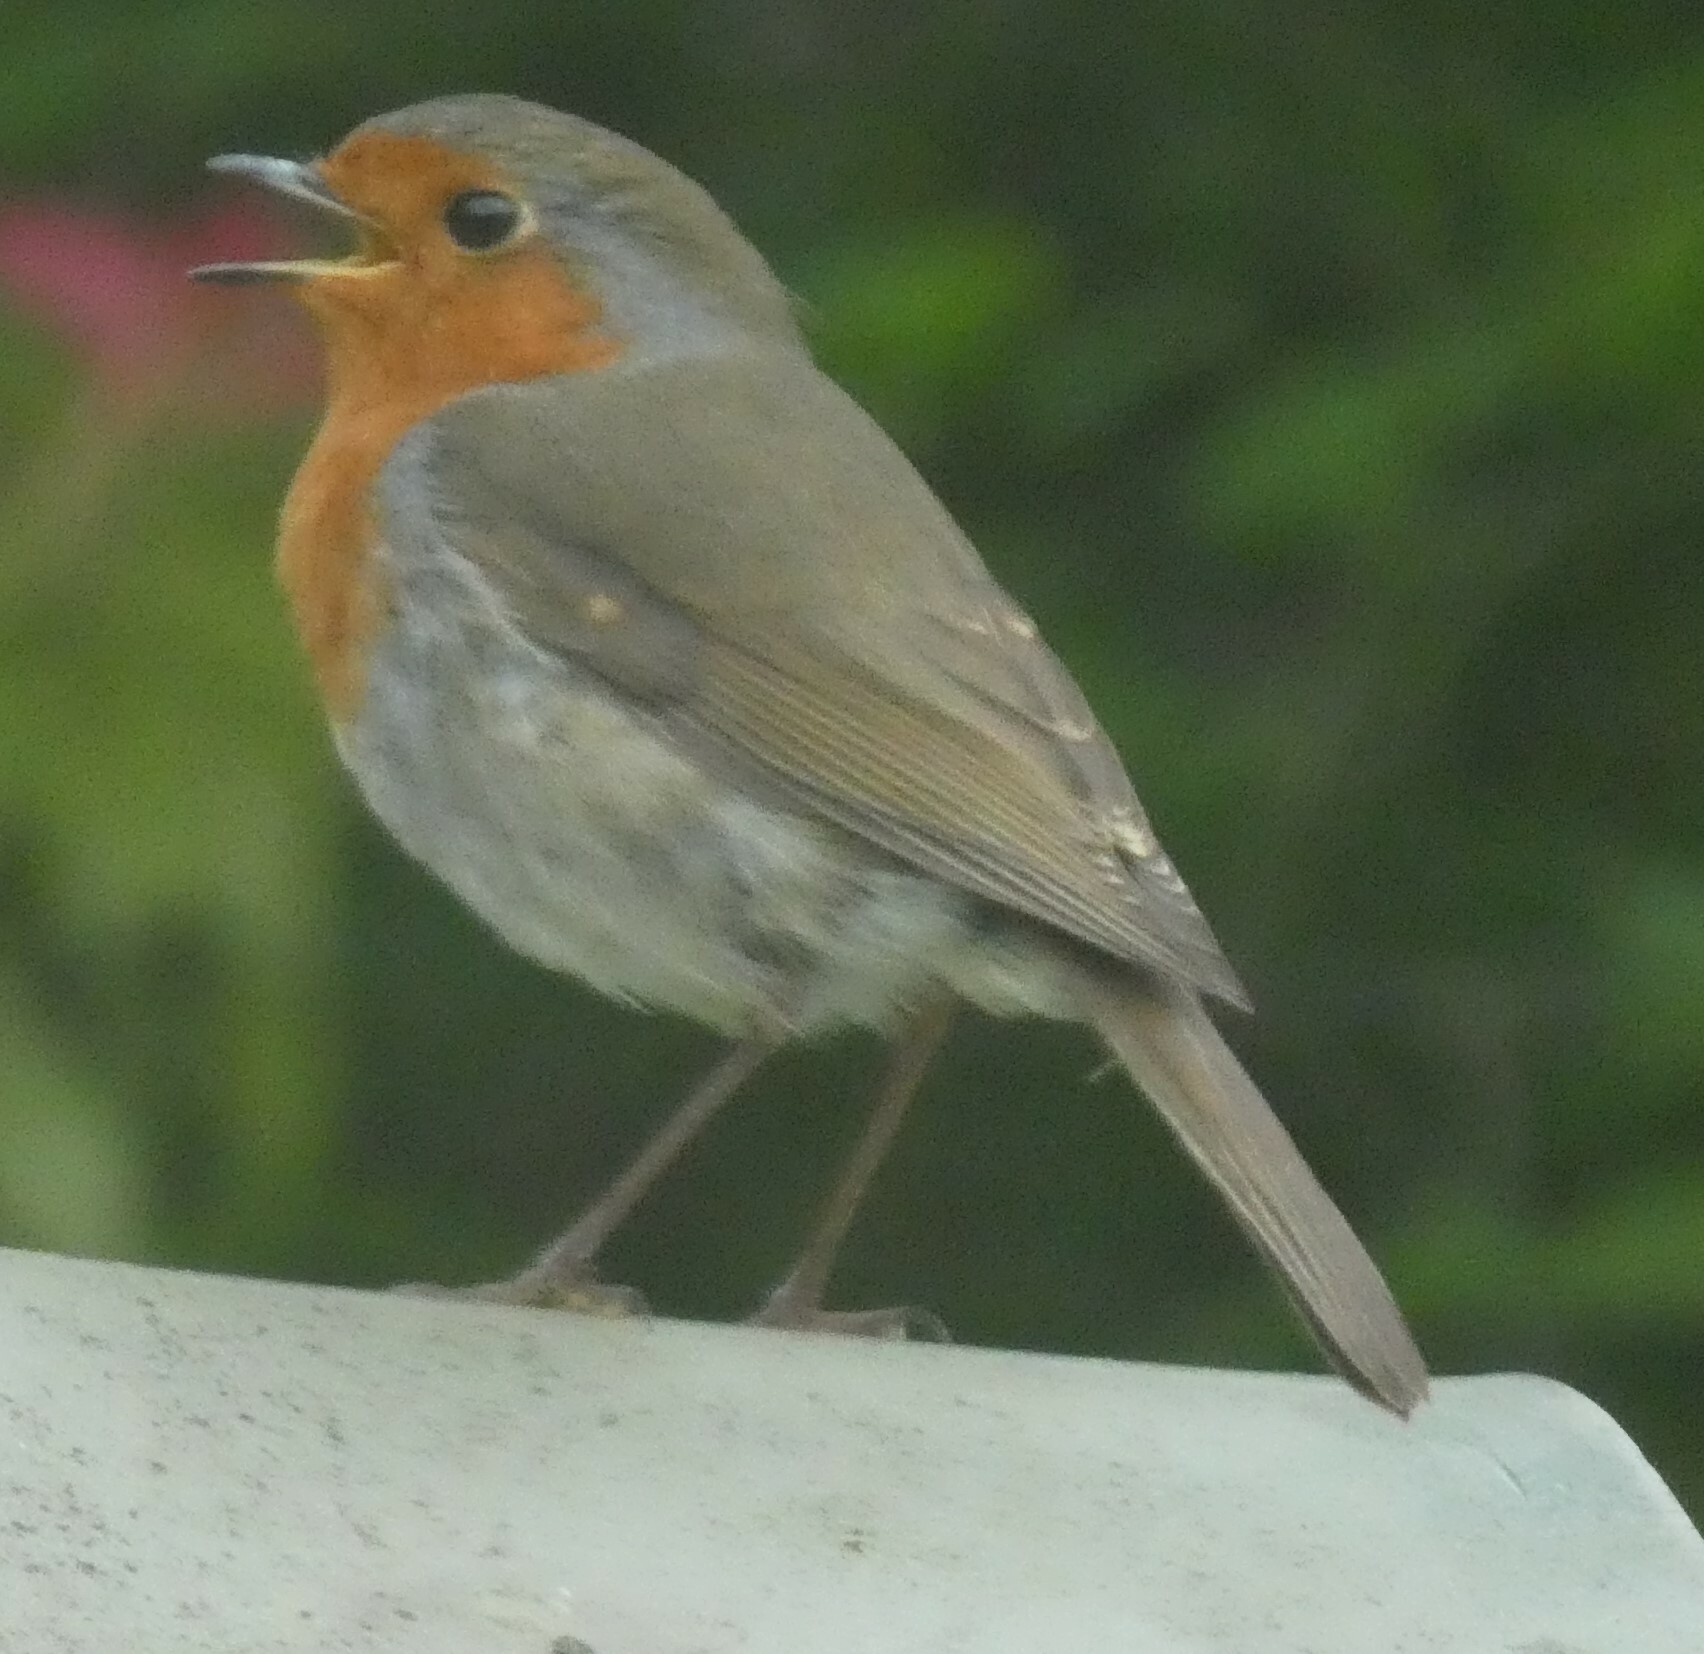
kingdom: Animalia
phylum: Chordata
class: Aves
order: Passeriformes
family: Muscicapidae
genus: Erithacus
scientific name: Erithacus rubecula
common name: European robin
